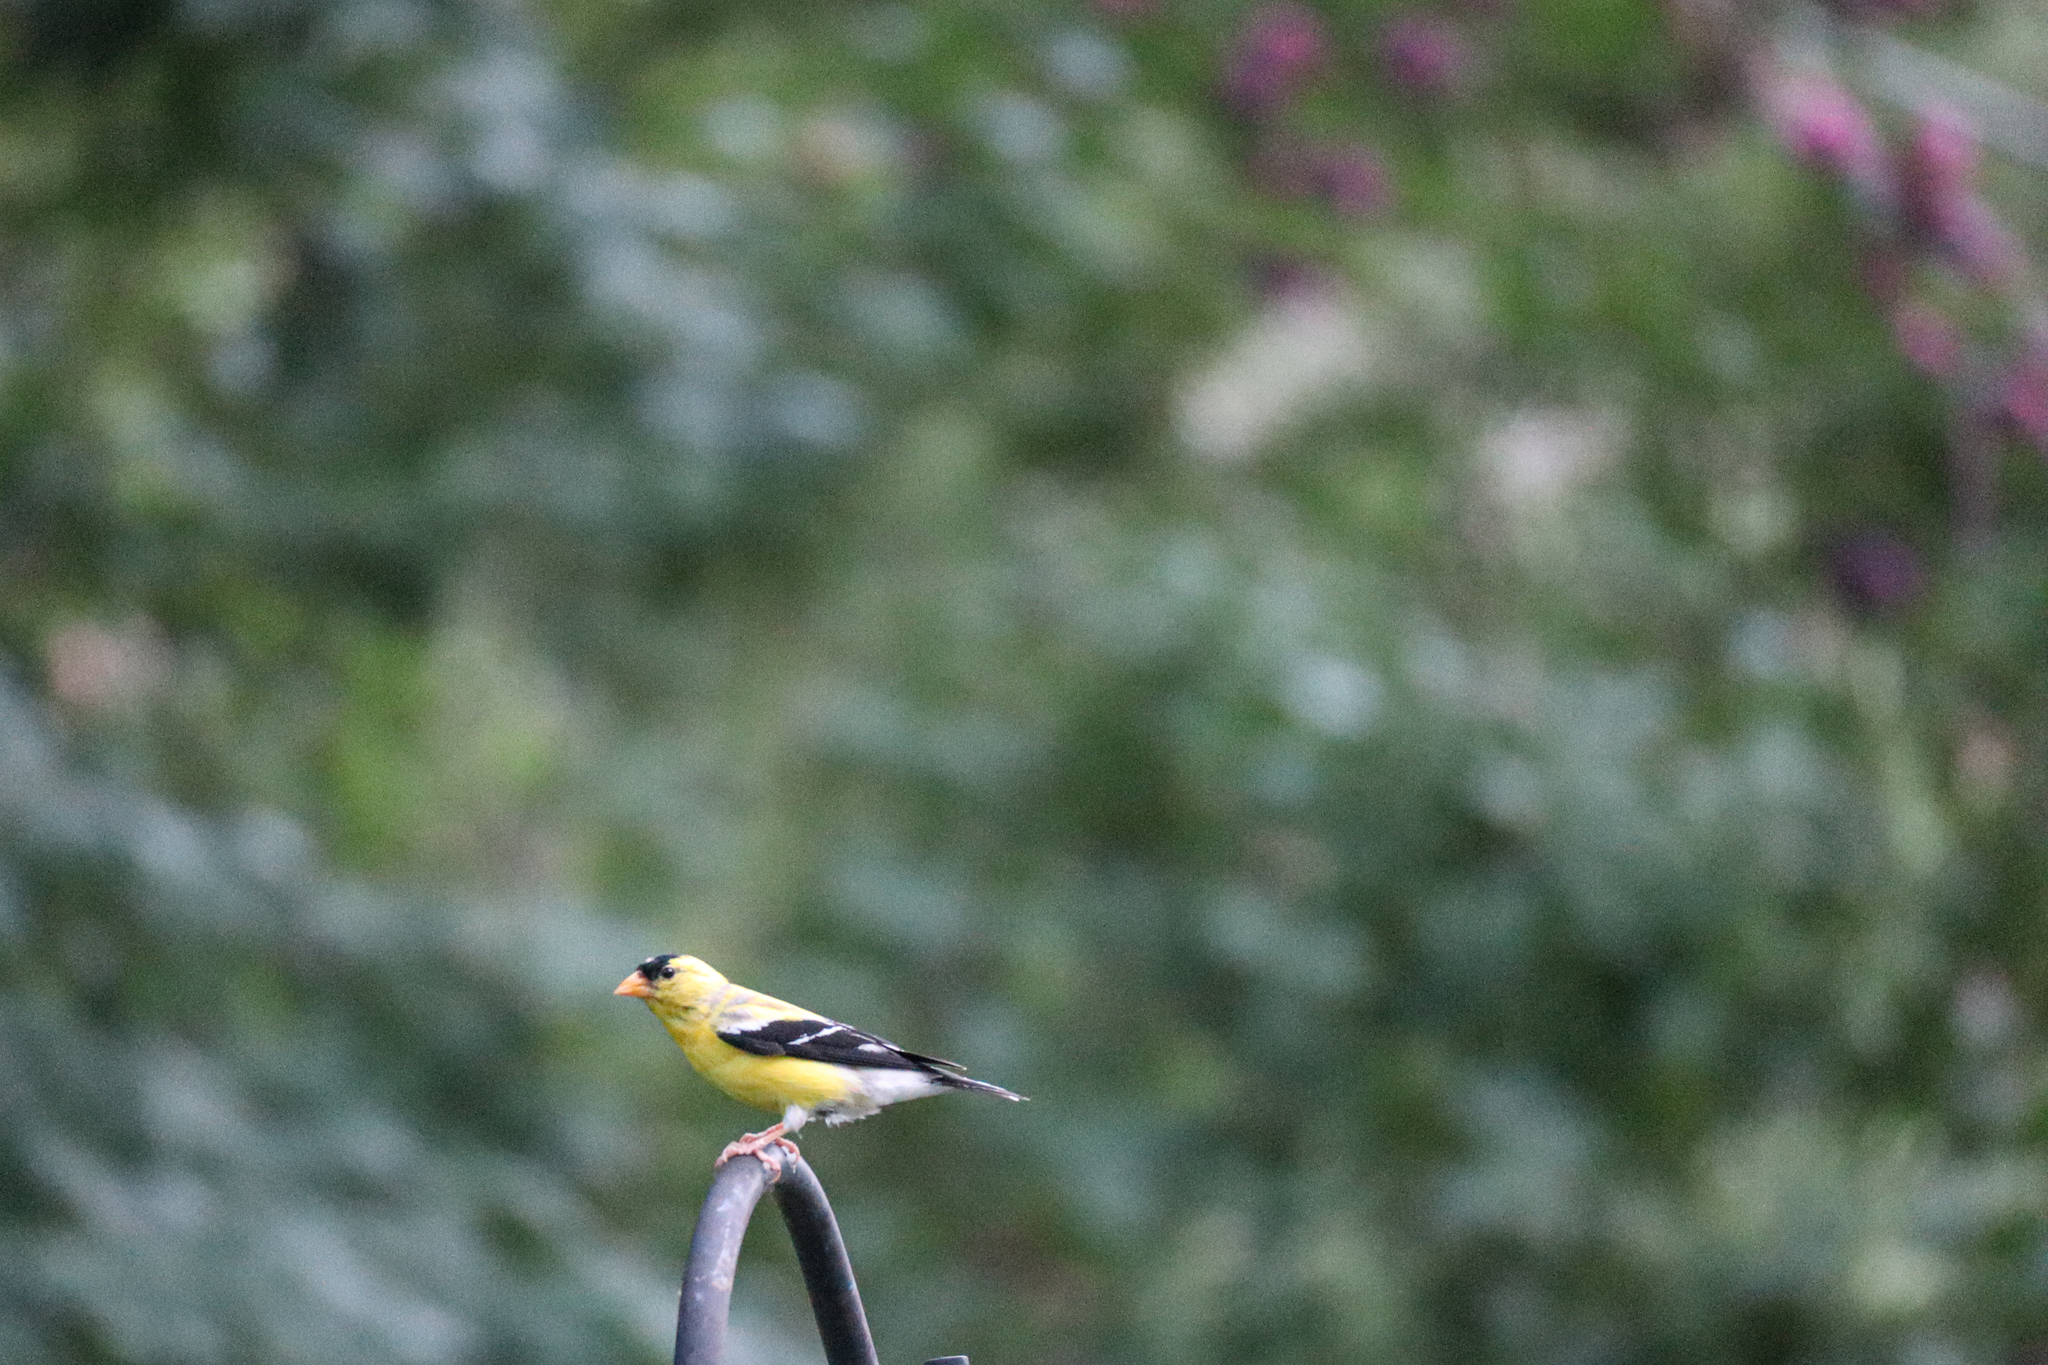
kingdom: Animalia
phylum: Chordata
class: Aves
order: Passeriformes
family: Fringillidae
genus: Spinus
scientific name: Spinus tristis
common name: American goldfinch
